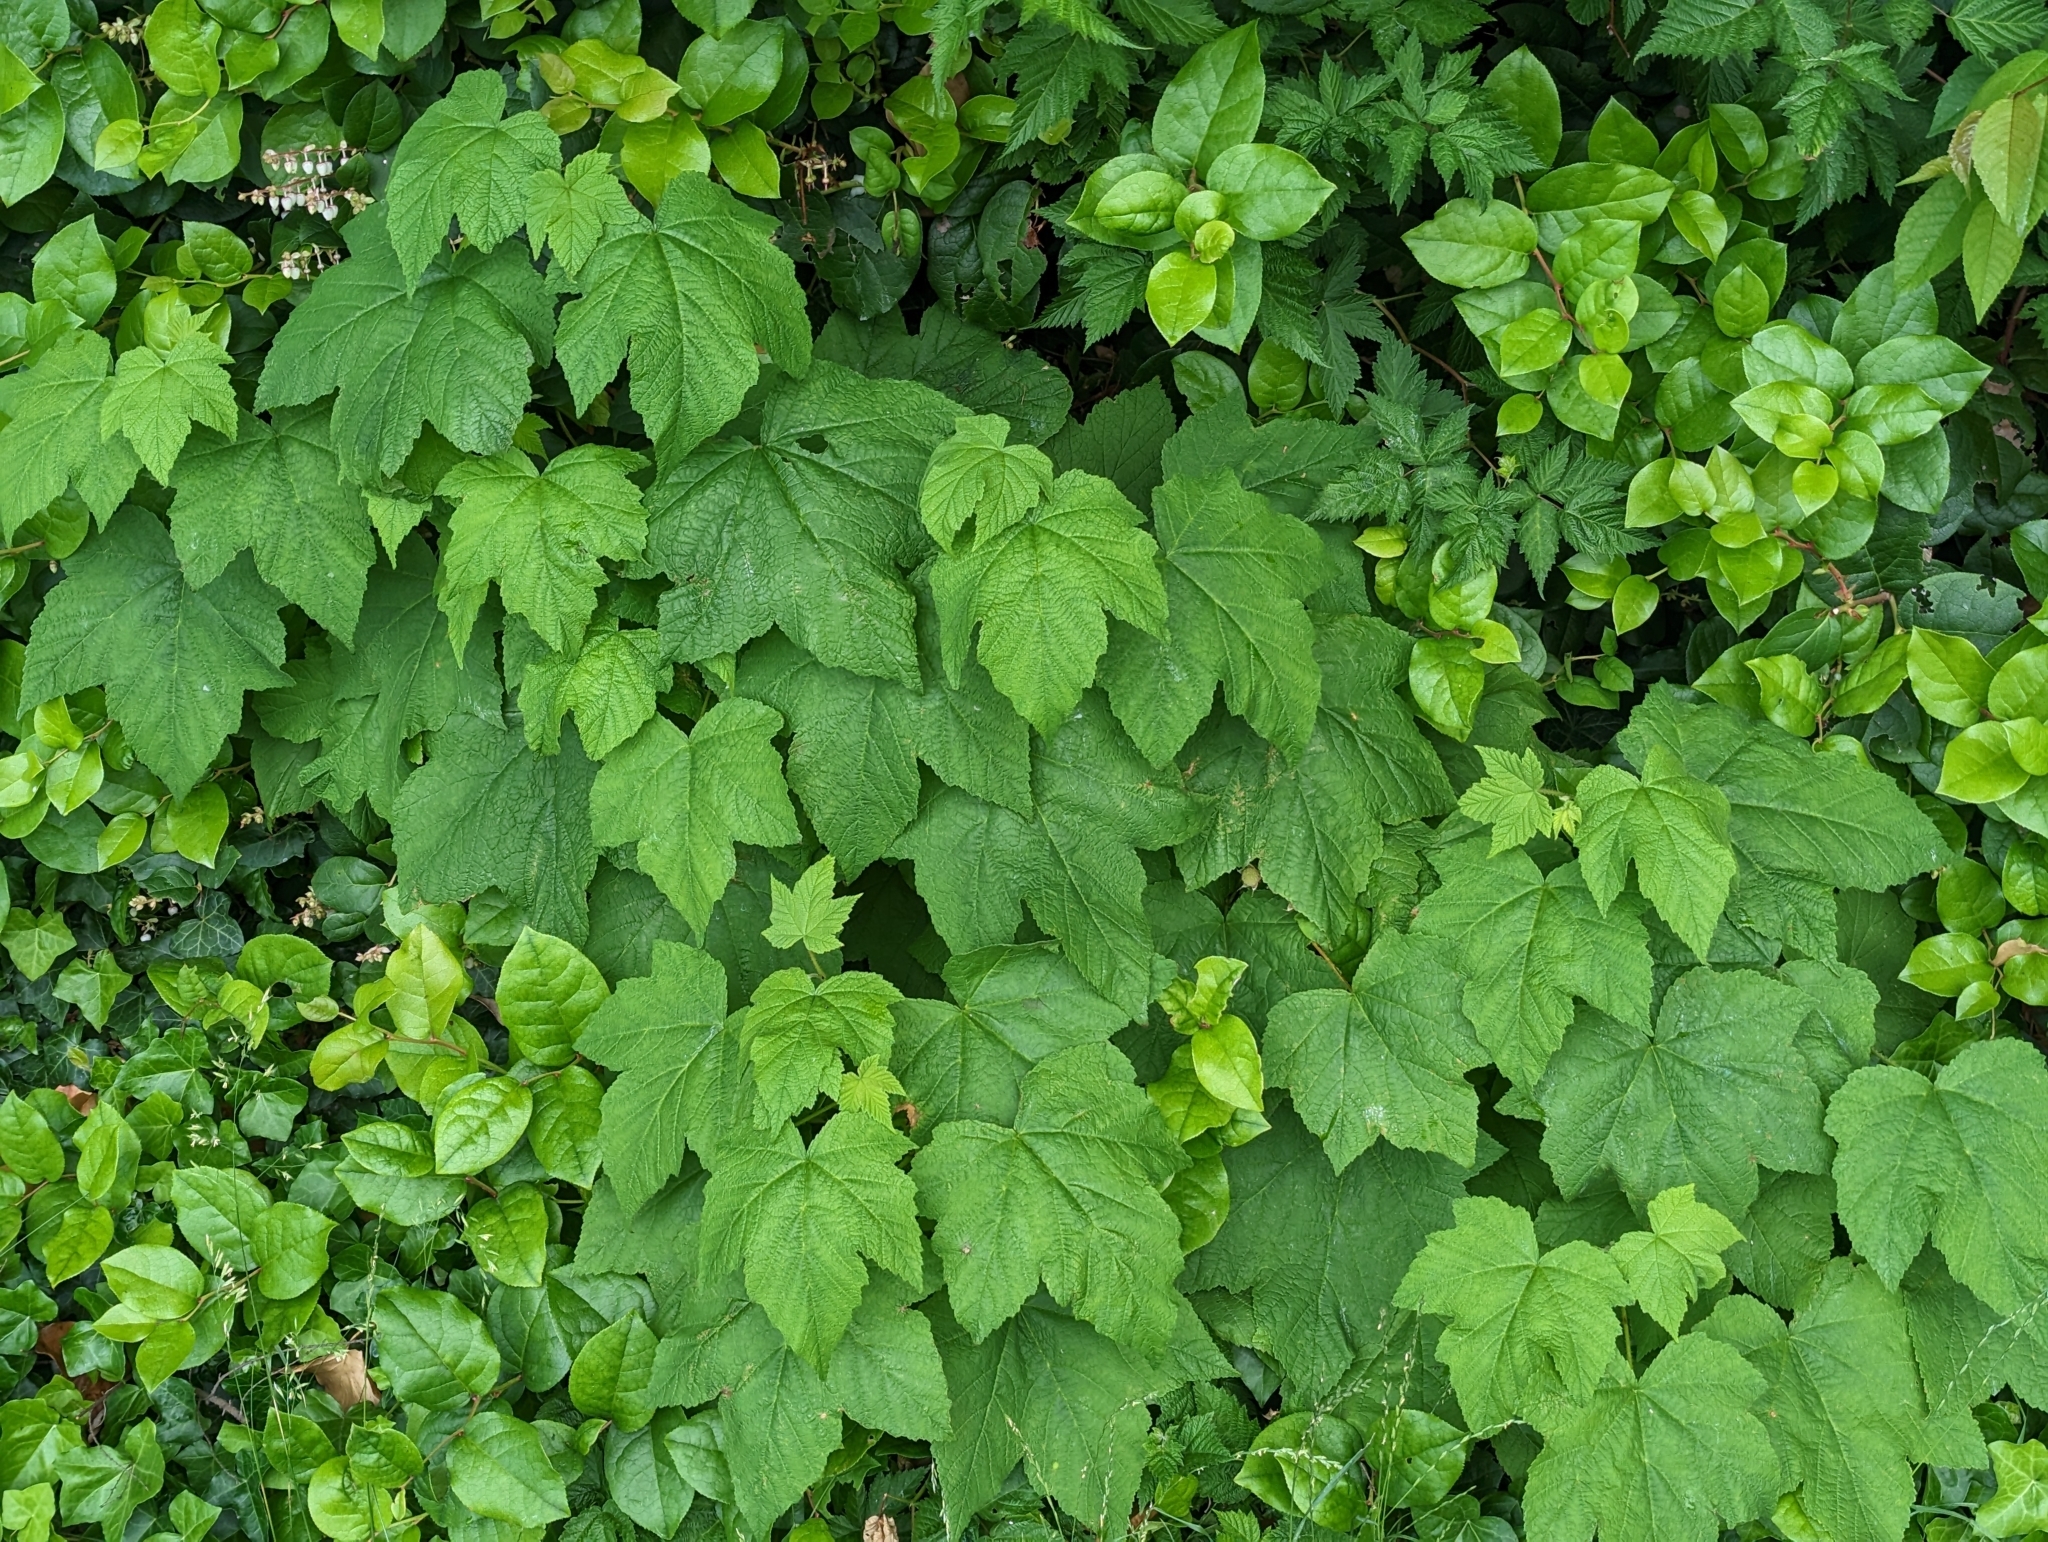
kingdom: Plantae
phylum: Tracheophyta
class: Magnoliopsida
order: Rosales
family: Rosaceae
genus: Rubus
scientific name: Rubus parviflorus
